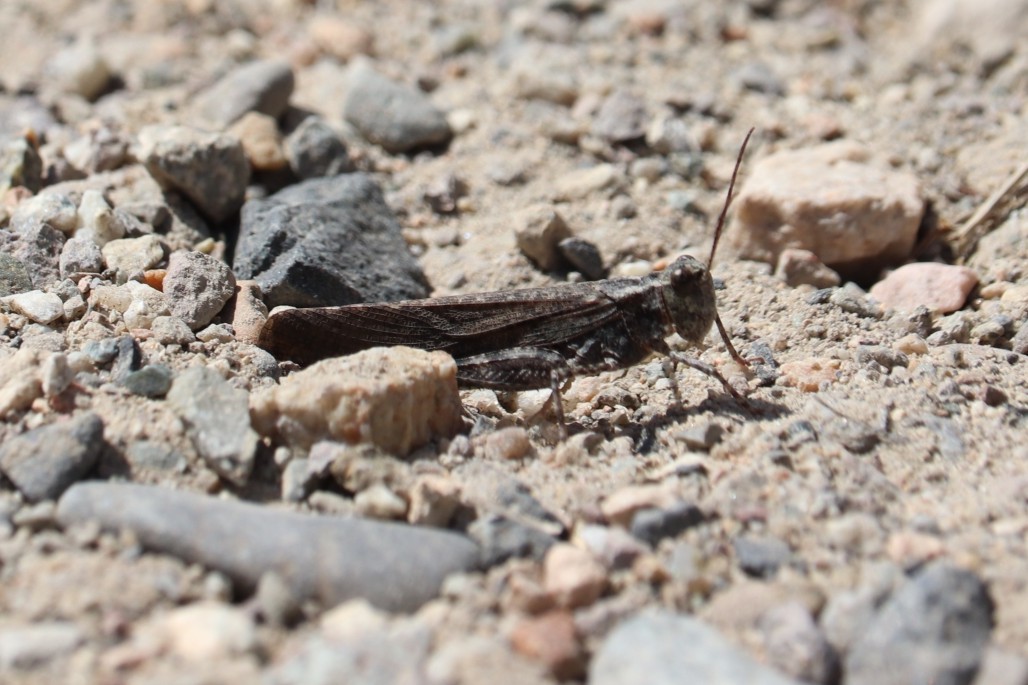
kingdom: Animalia
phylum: Arthropoda
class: Insecta
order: Orthoptera
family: Acrididae
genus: Dissosteira
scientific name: Dissosteira carolina
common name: Carolina grasshopper
